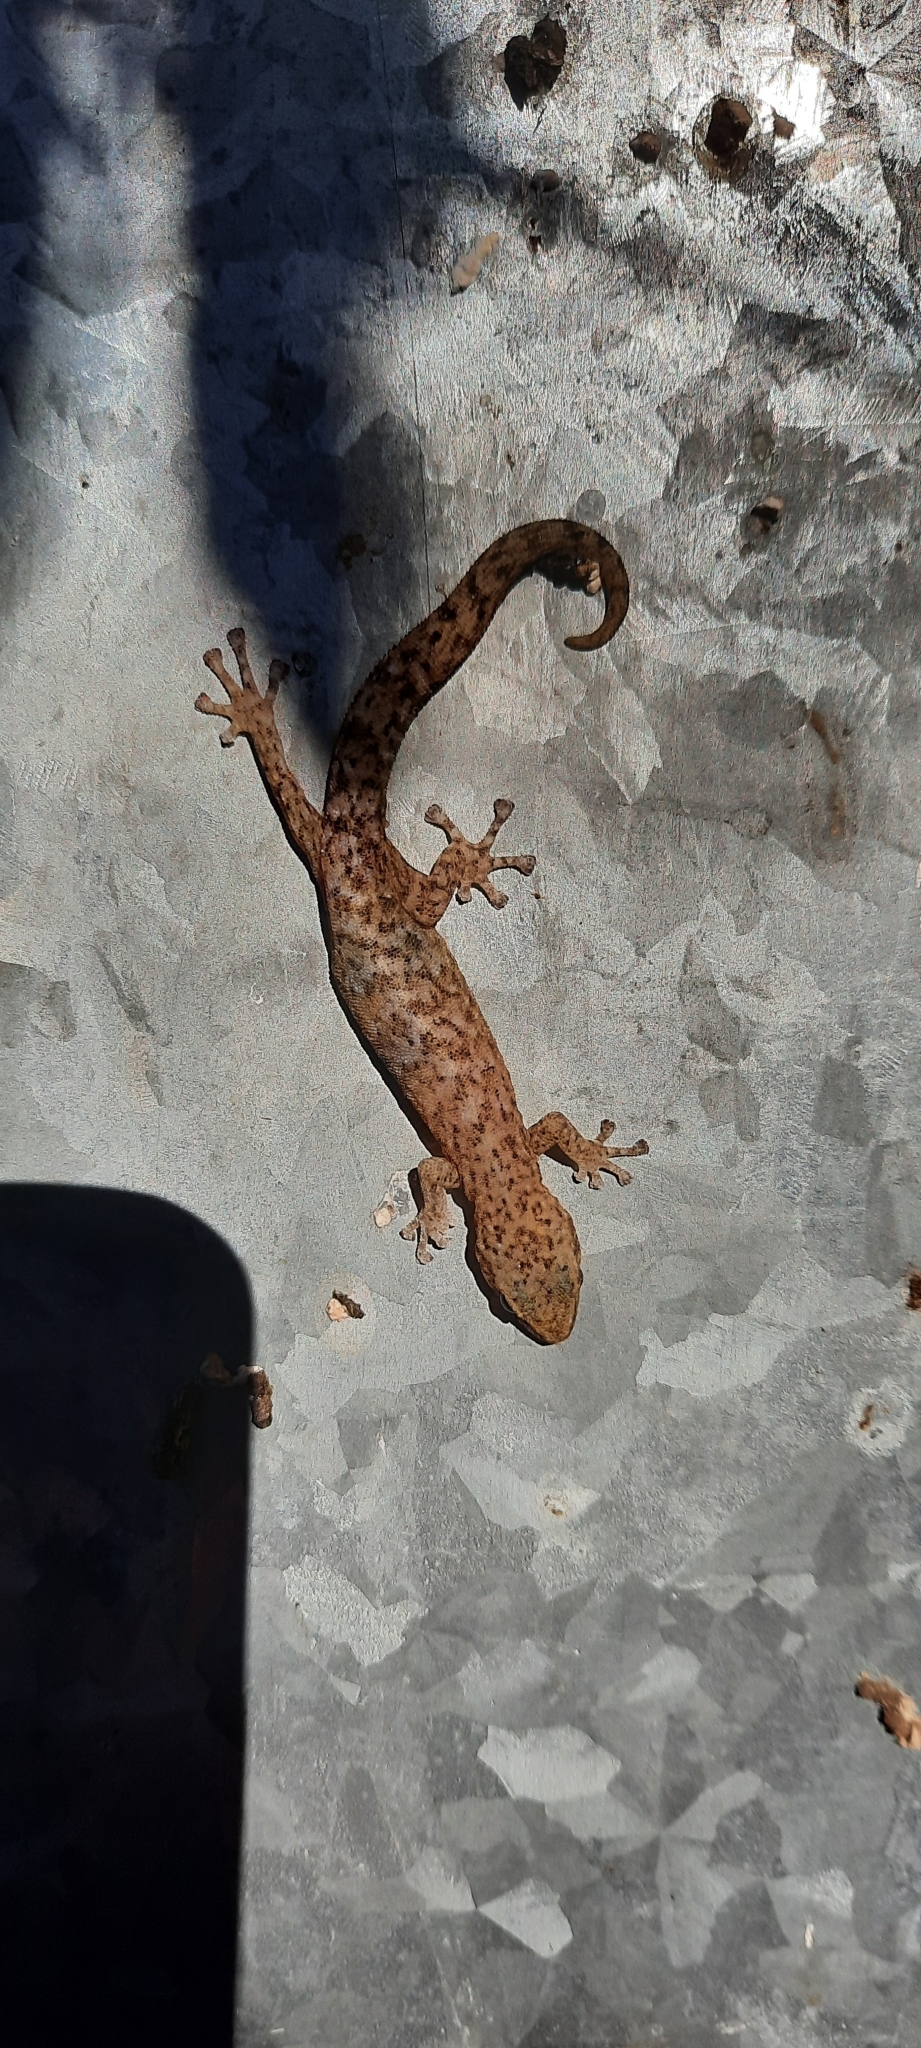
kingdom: Animalia
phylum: Chordata
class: Squamata
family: Gekkonidae
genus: Afrogecko
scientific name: Afrogecko porphyreus
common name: Marbled leaf-toed gecko
